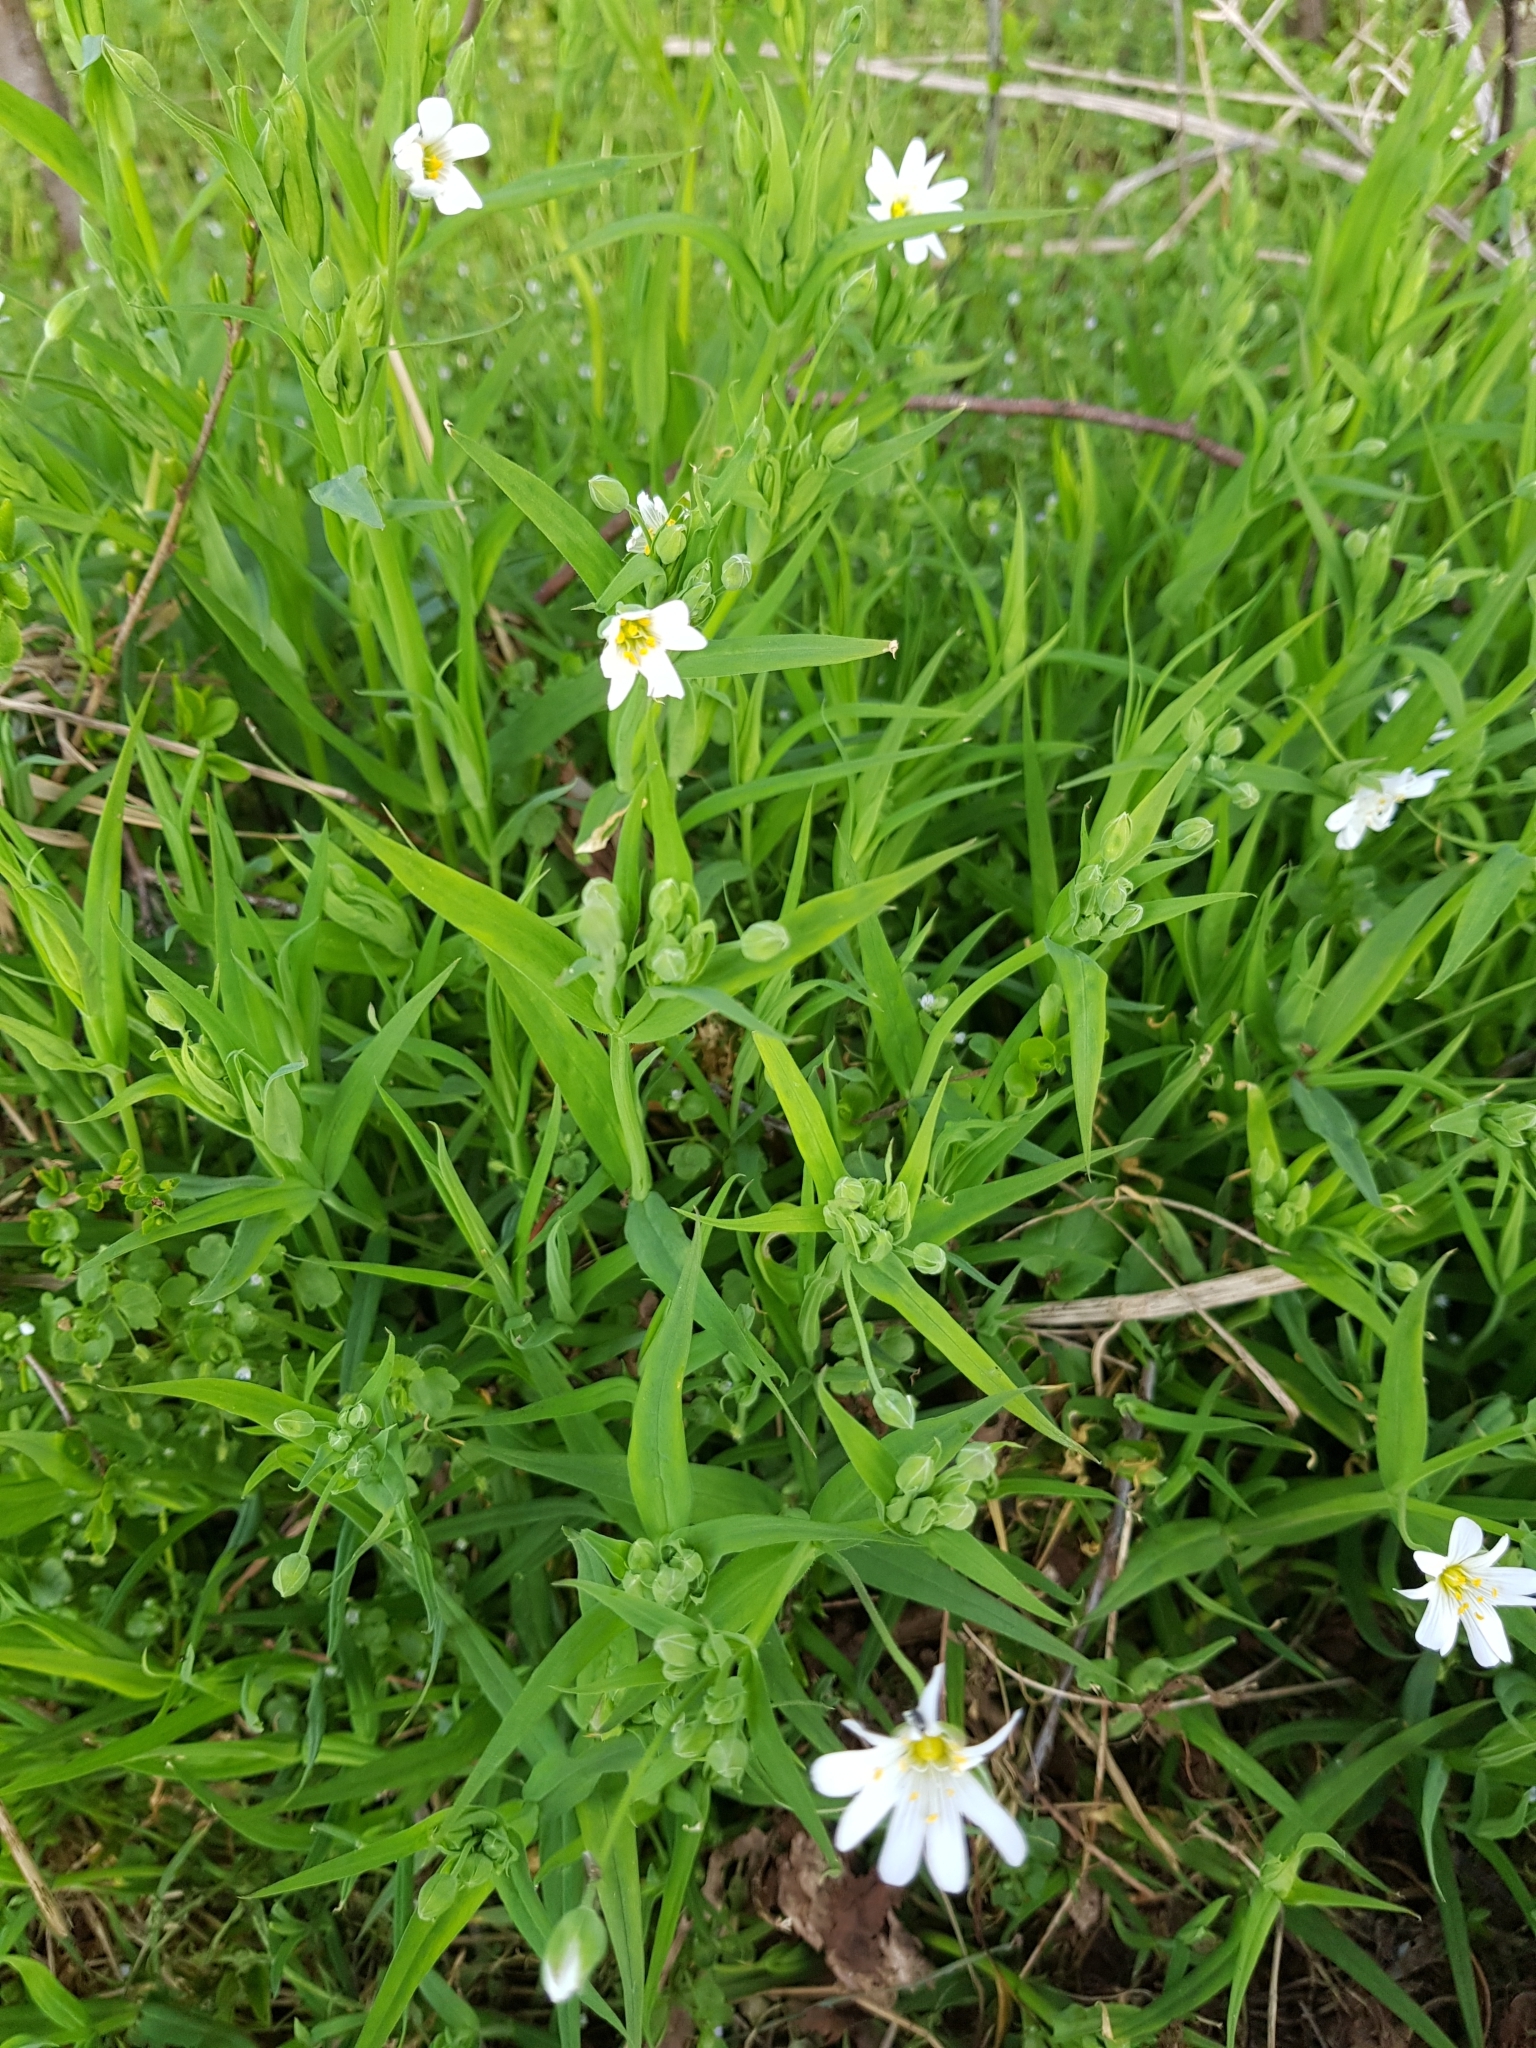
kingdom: Plantae
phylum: Tracheophyta
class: Magnoliopsida
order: Caryophyllales
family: Caryophyllaceae
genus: Rabelera
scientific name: Rabelera holostea
